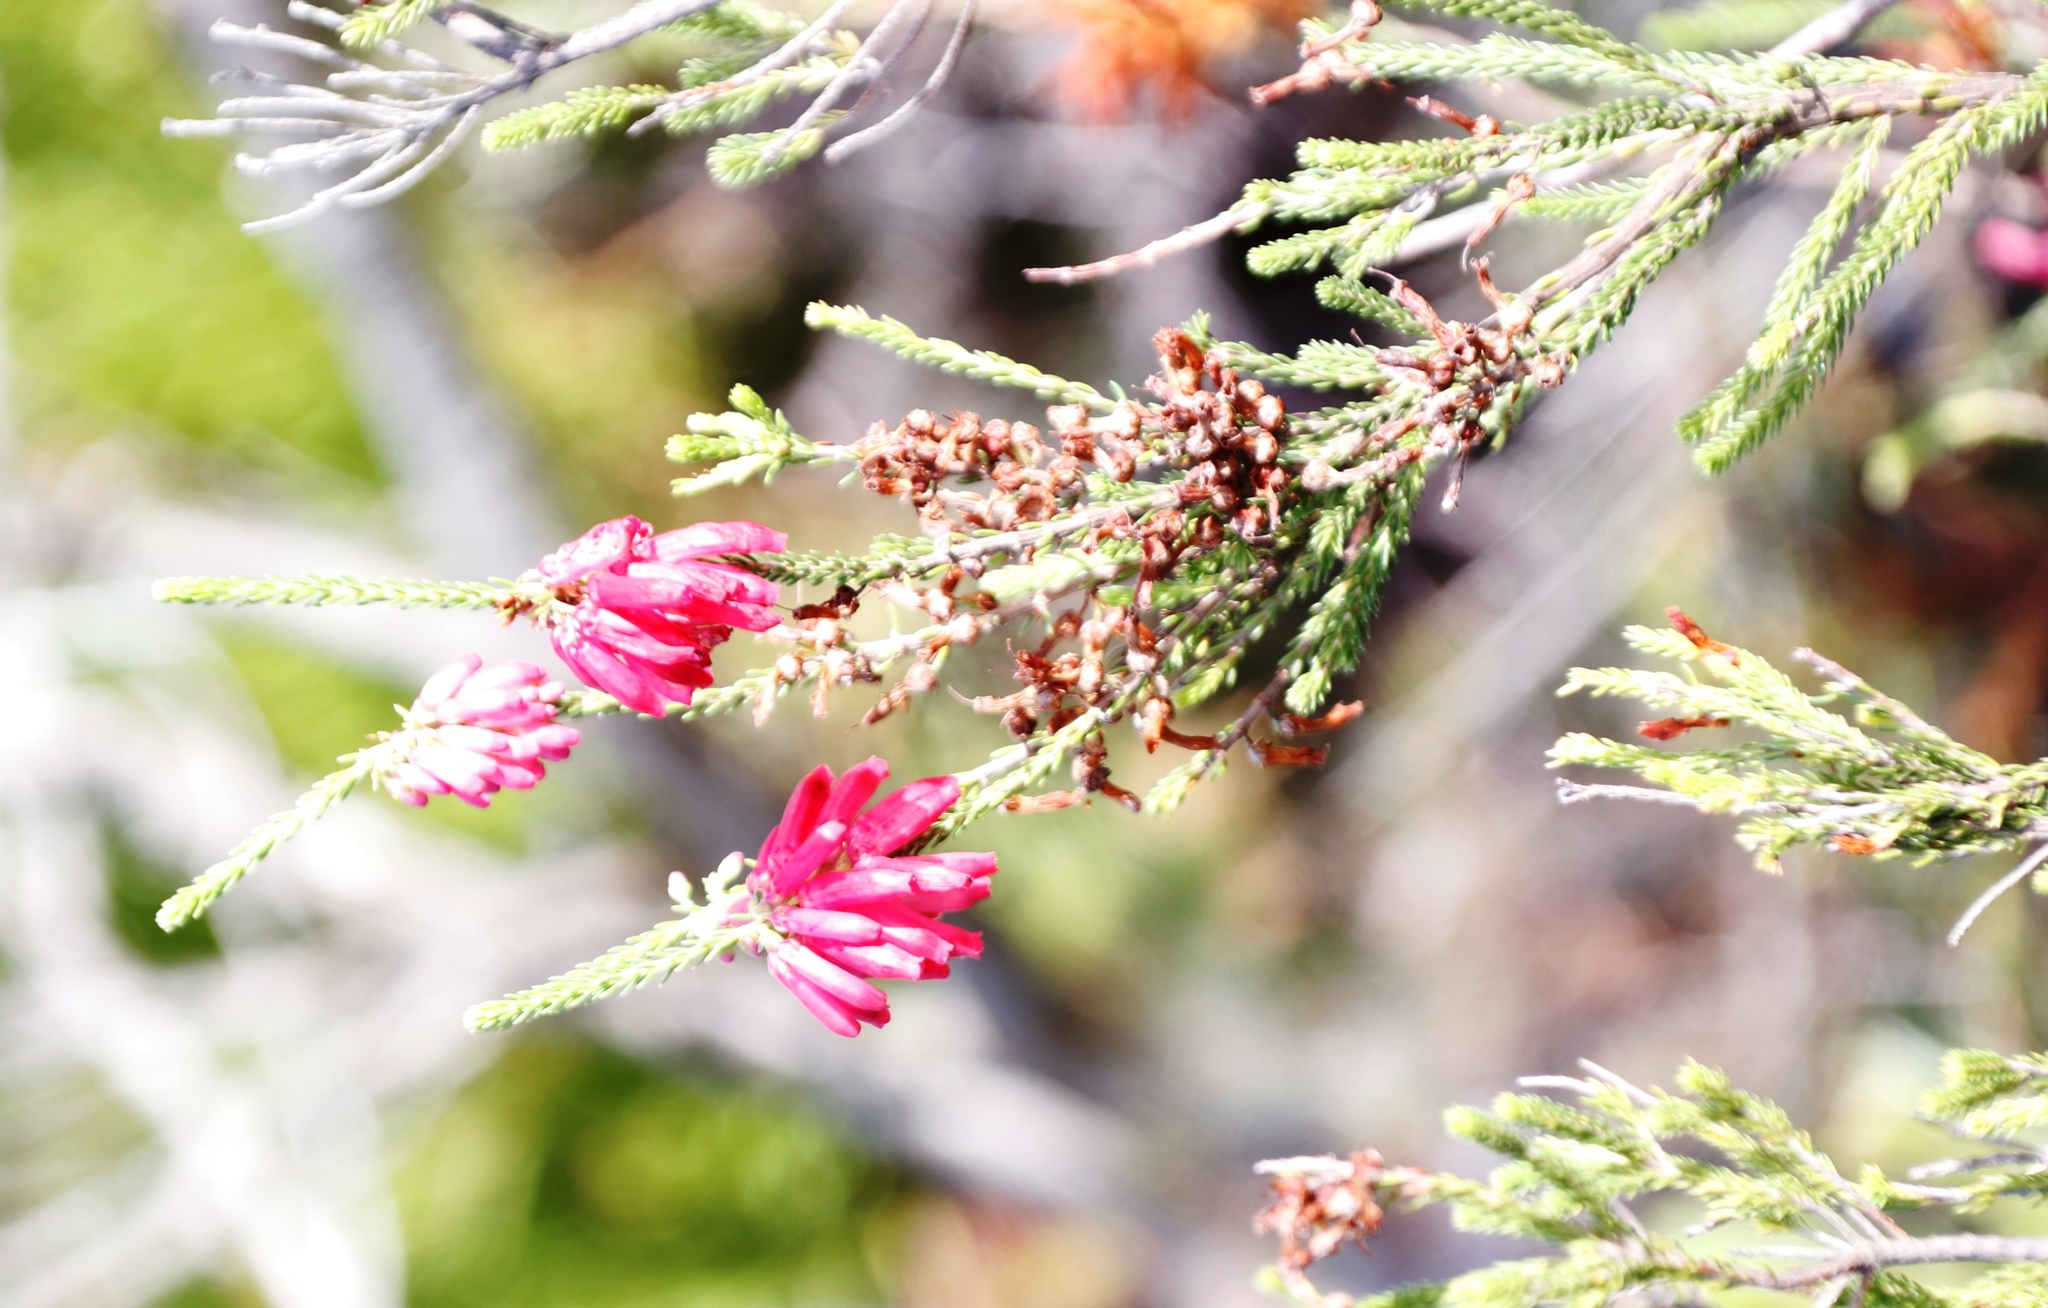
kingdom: Plantae
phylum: Tracheophyta
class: Magnoliopsida
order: Ericales
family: Ericaceae
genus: Erica
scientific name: Erica mammosa
